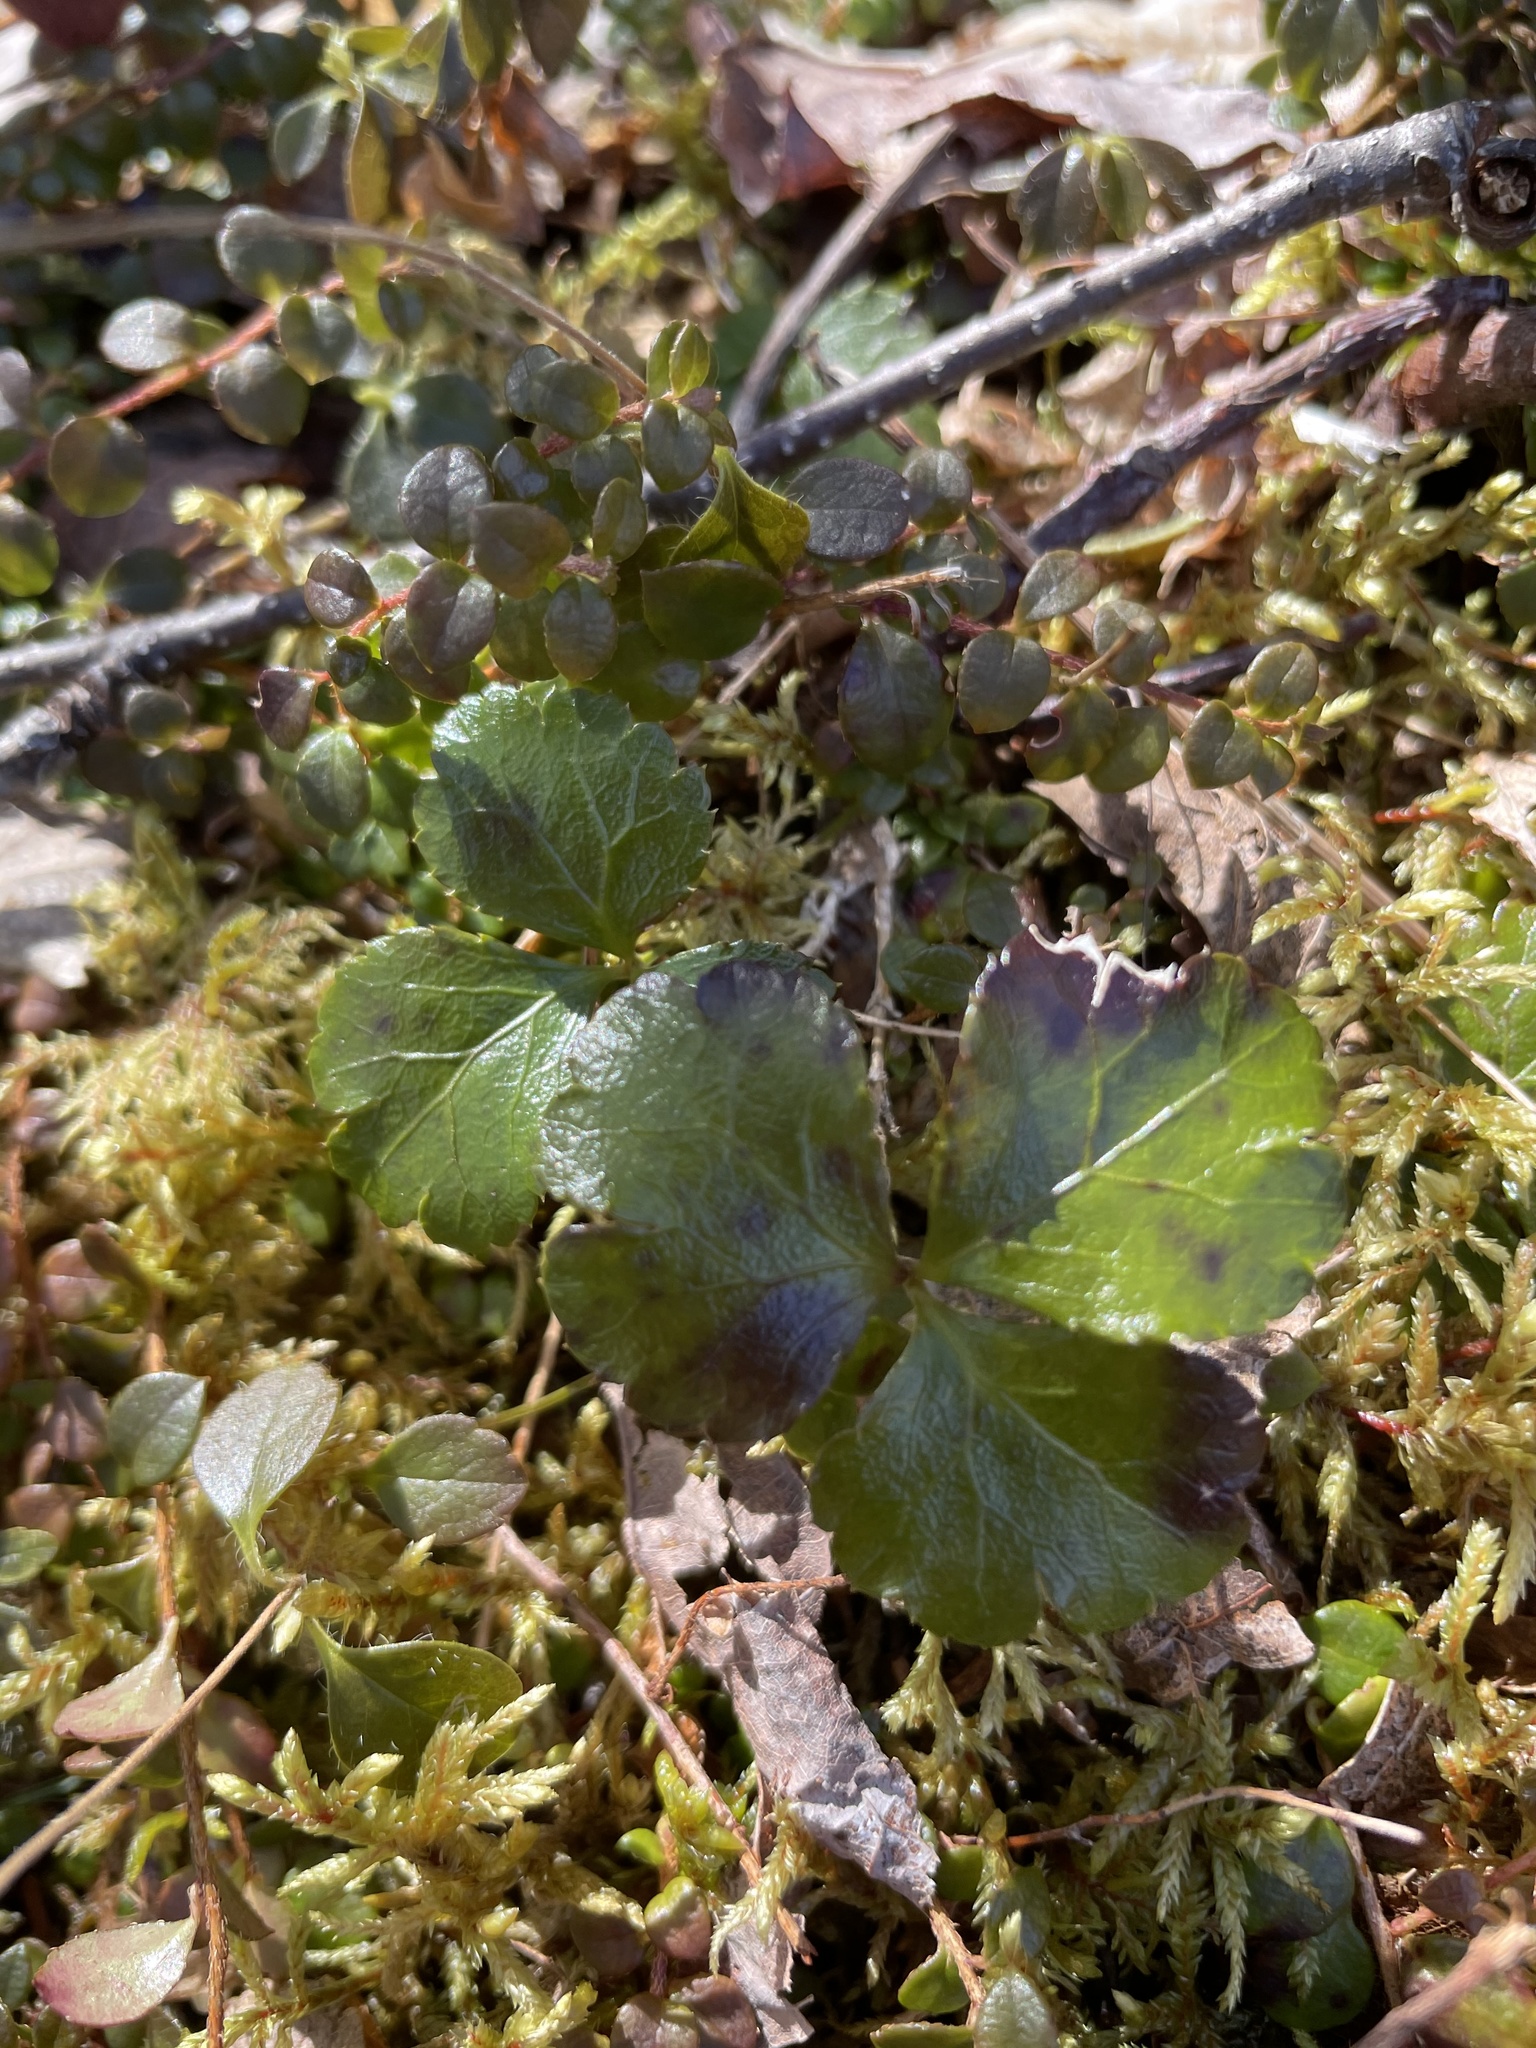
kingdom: Plantae
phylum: Tracheophyta
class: Magnoliopsida
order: Ranunculales
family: Ranunculaceae
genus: Coptis
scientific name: Coptis trifolia
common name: Canker-root
